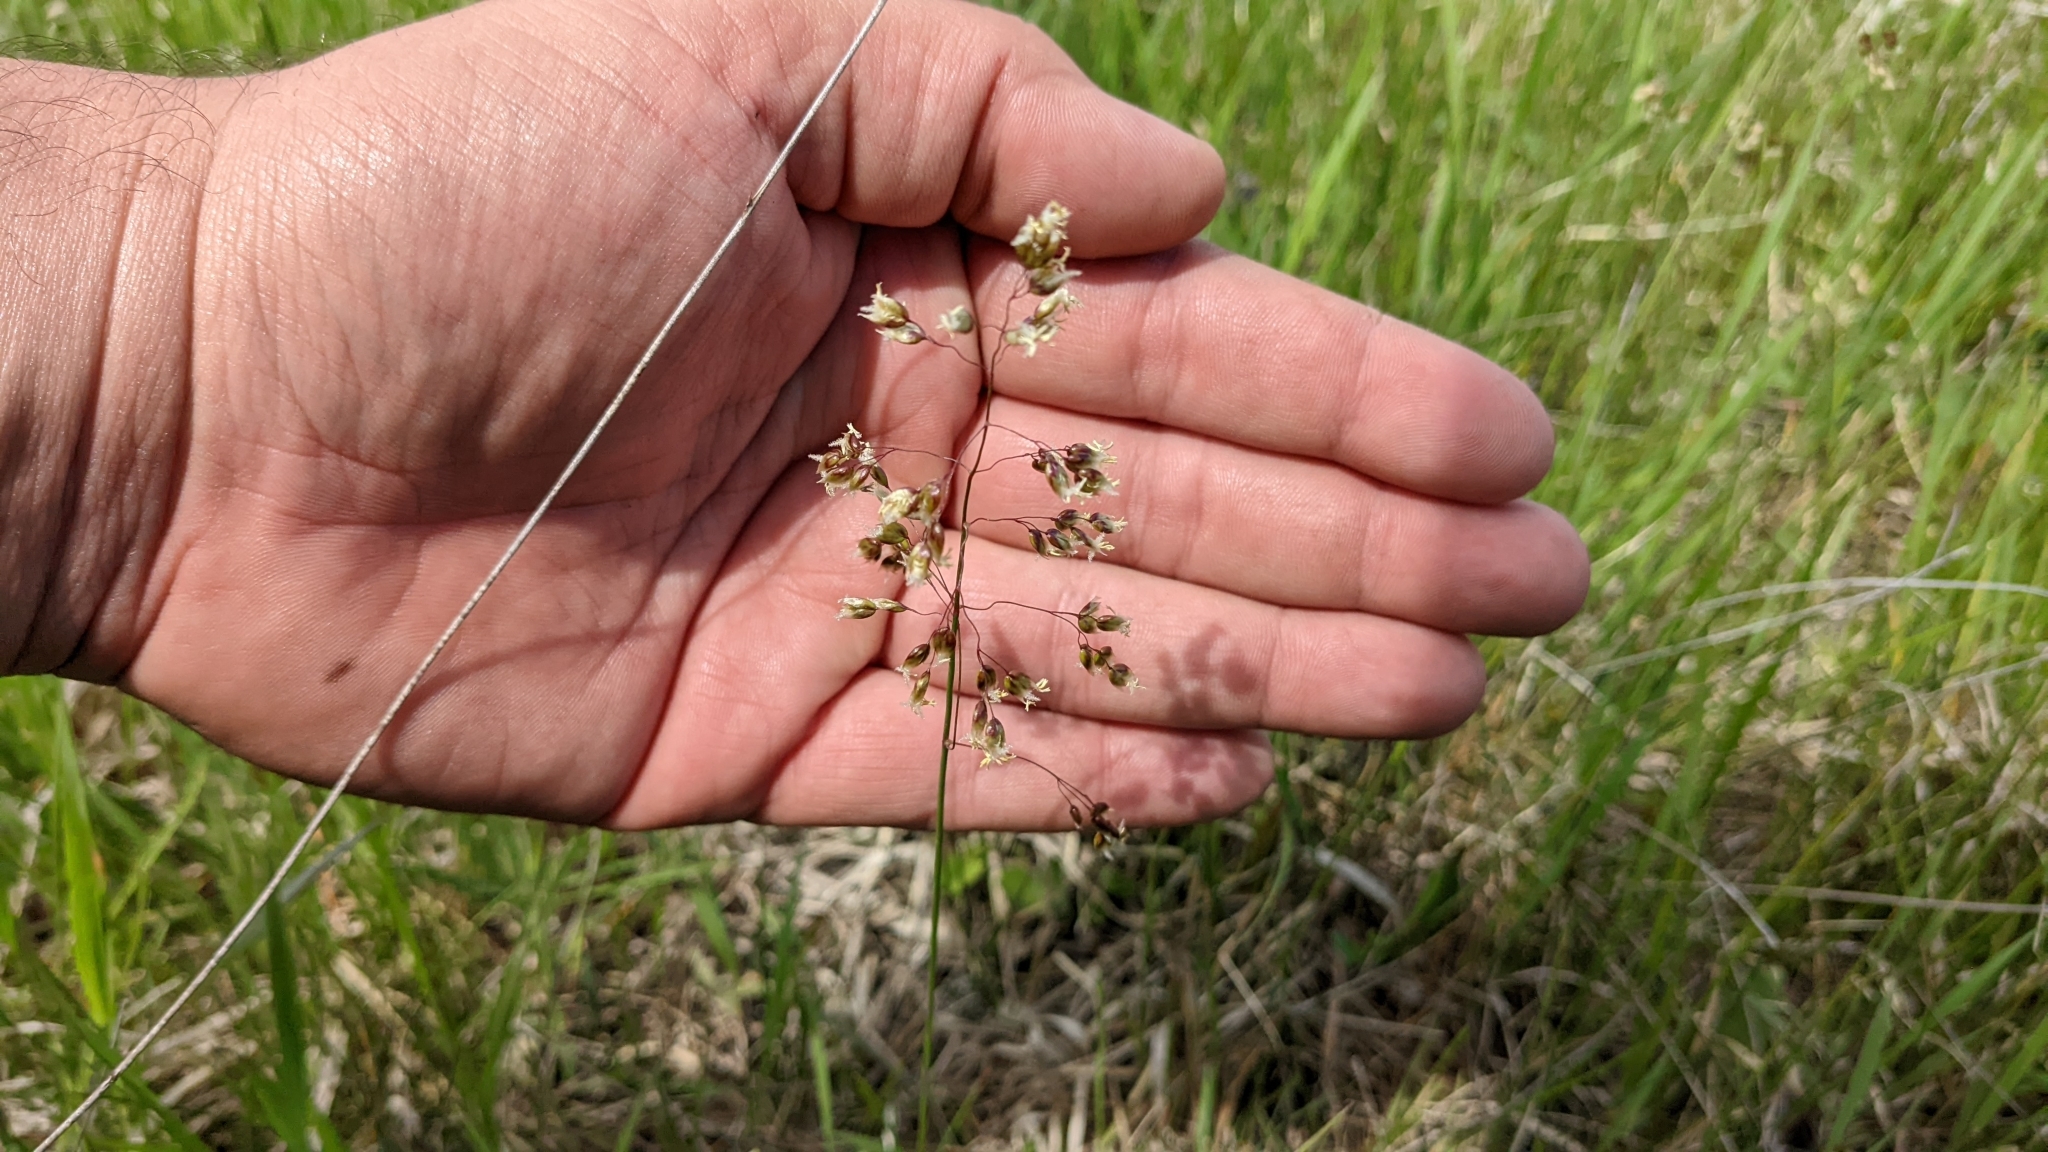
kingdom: Plantae
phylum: Tracheophyta
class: Liliopsida
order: Poales
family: Poaceae
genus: Anthoxanthum
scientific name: Anthoxanthum nitens
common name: Holy grass
